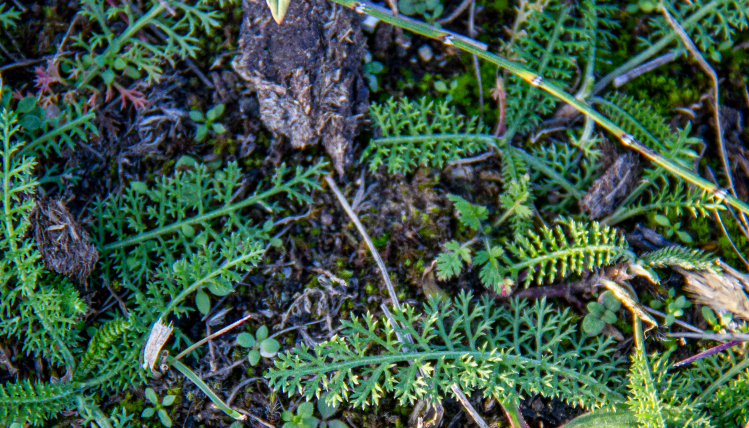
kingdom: Plantae
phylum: Tracheophyta
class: Magnoliopsida
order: Asterales
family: Asteraceae
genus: Achillea
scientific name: Achillea millefolium
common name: Yarrow
